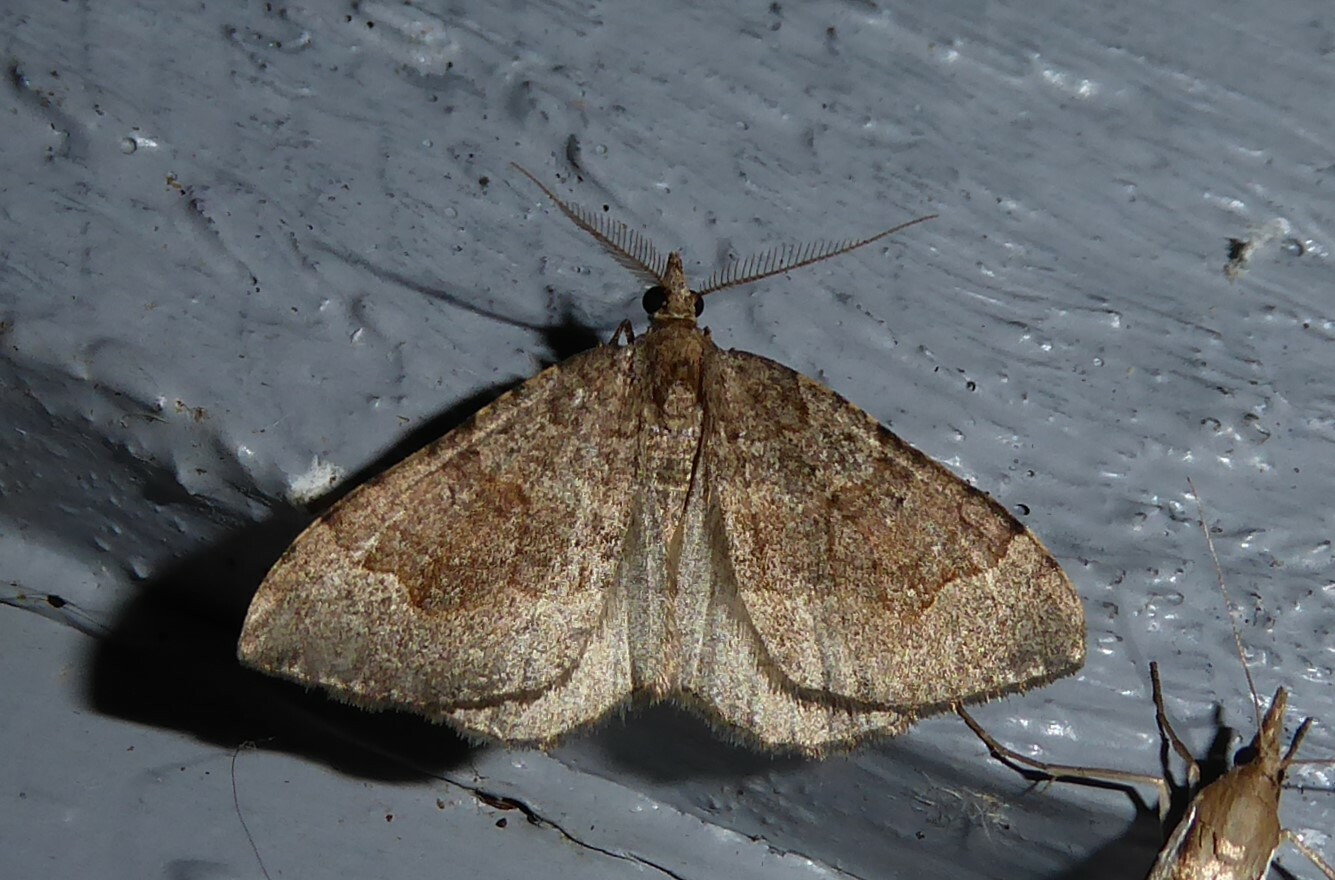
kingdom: Animalia
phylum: Arthropoda
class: Insecta
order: Lepidoptera
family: Geometridae
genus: Epyaxa
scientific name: Epyaxa rosearia
